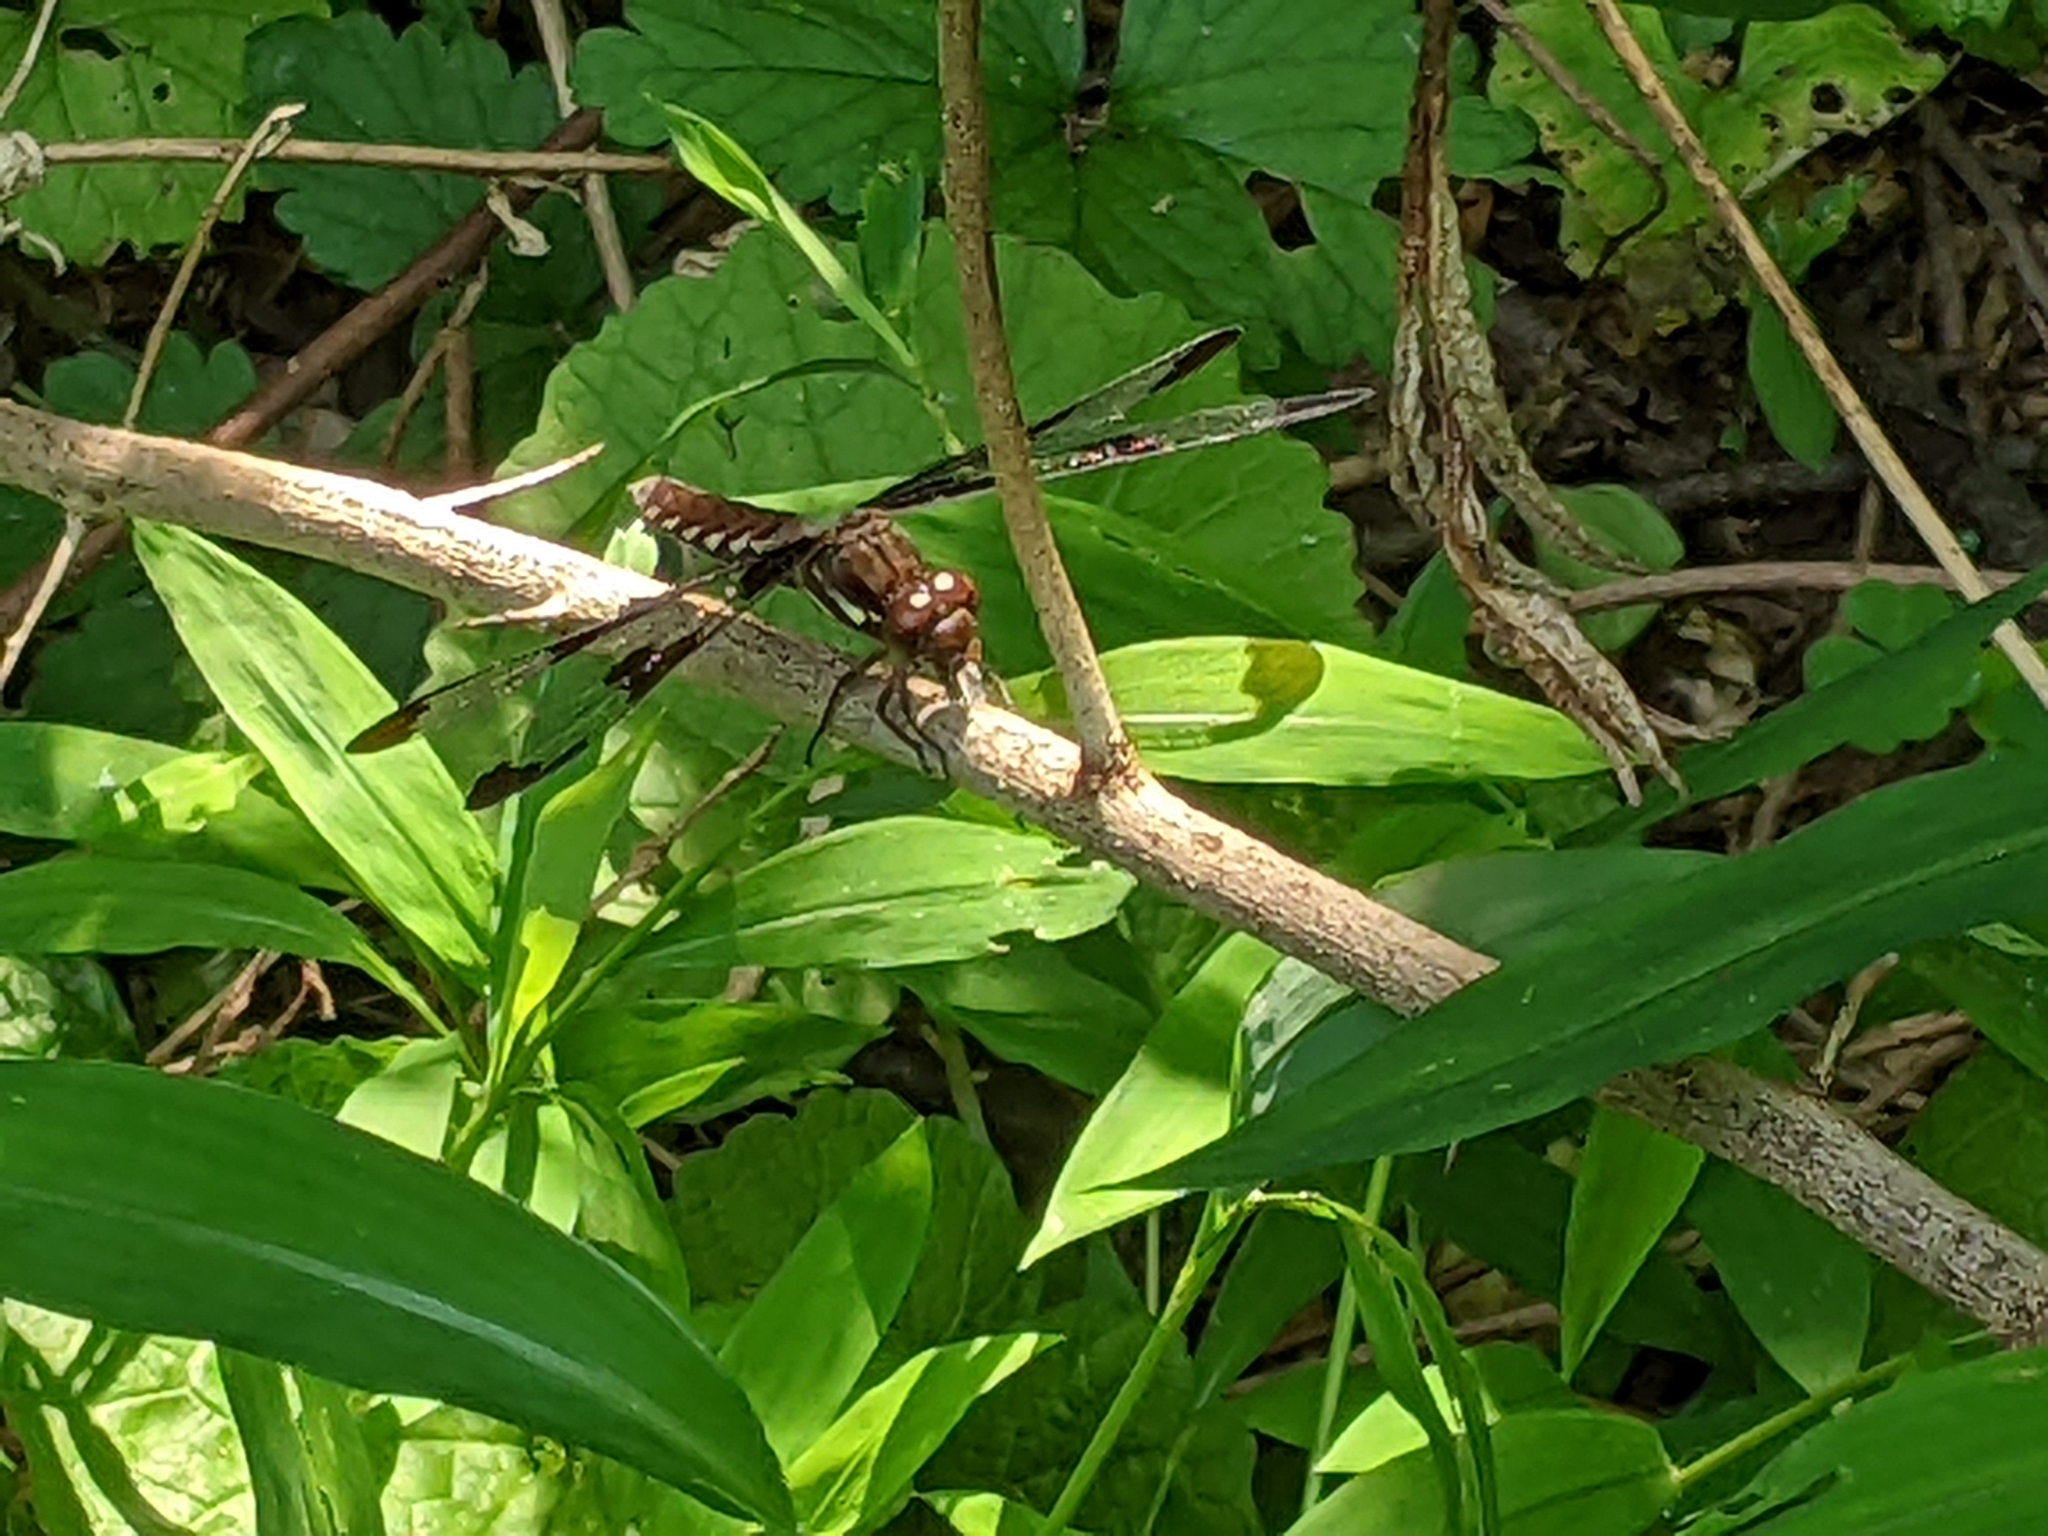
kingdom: Animalia
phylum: Arthropoda
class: Insecta
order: Odonata
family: Libellulidae
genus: Plathemis
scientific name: Plathemis lydia
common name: Common whitetail
